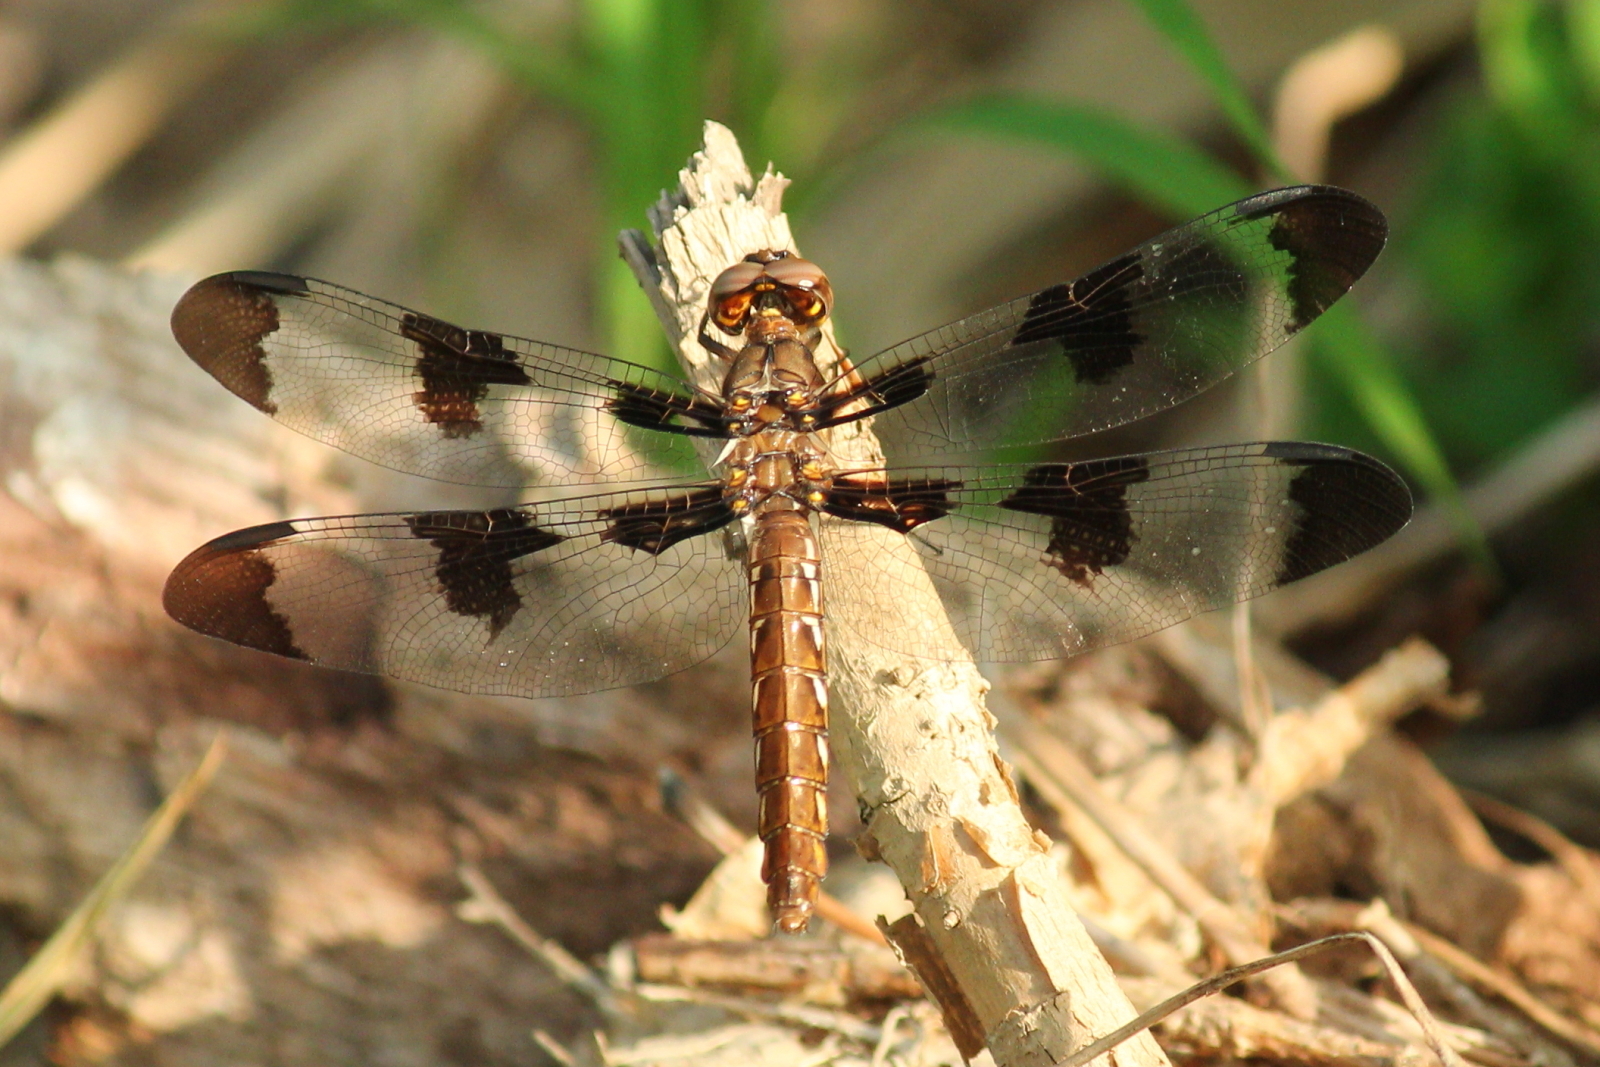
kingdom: Animalia
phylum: Arthropoda
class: Insecta
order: Odonata
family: Libellulidae
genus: Plathemis
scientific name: Plathemis lydia
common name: Common whitetail
